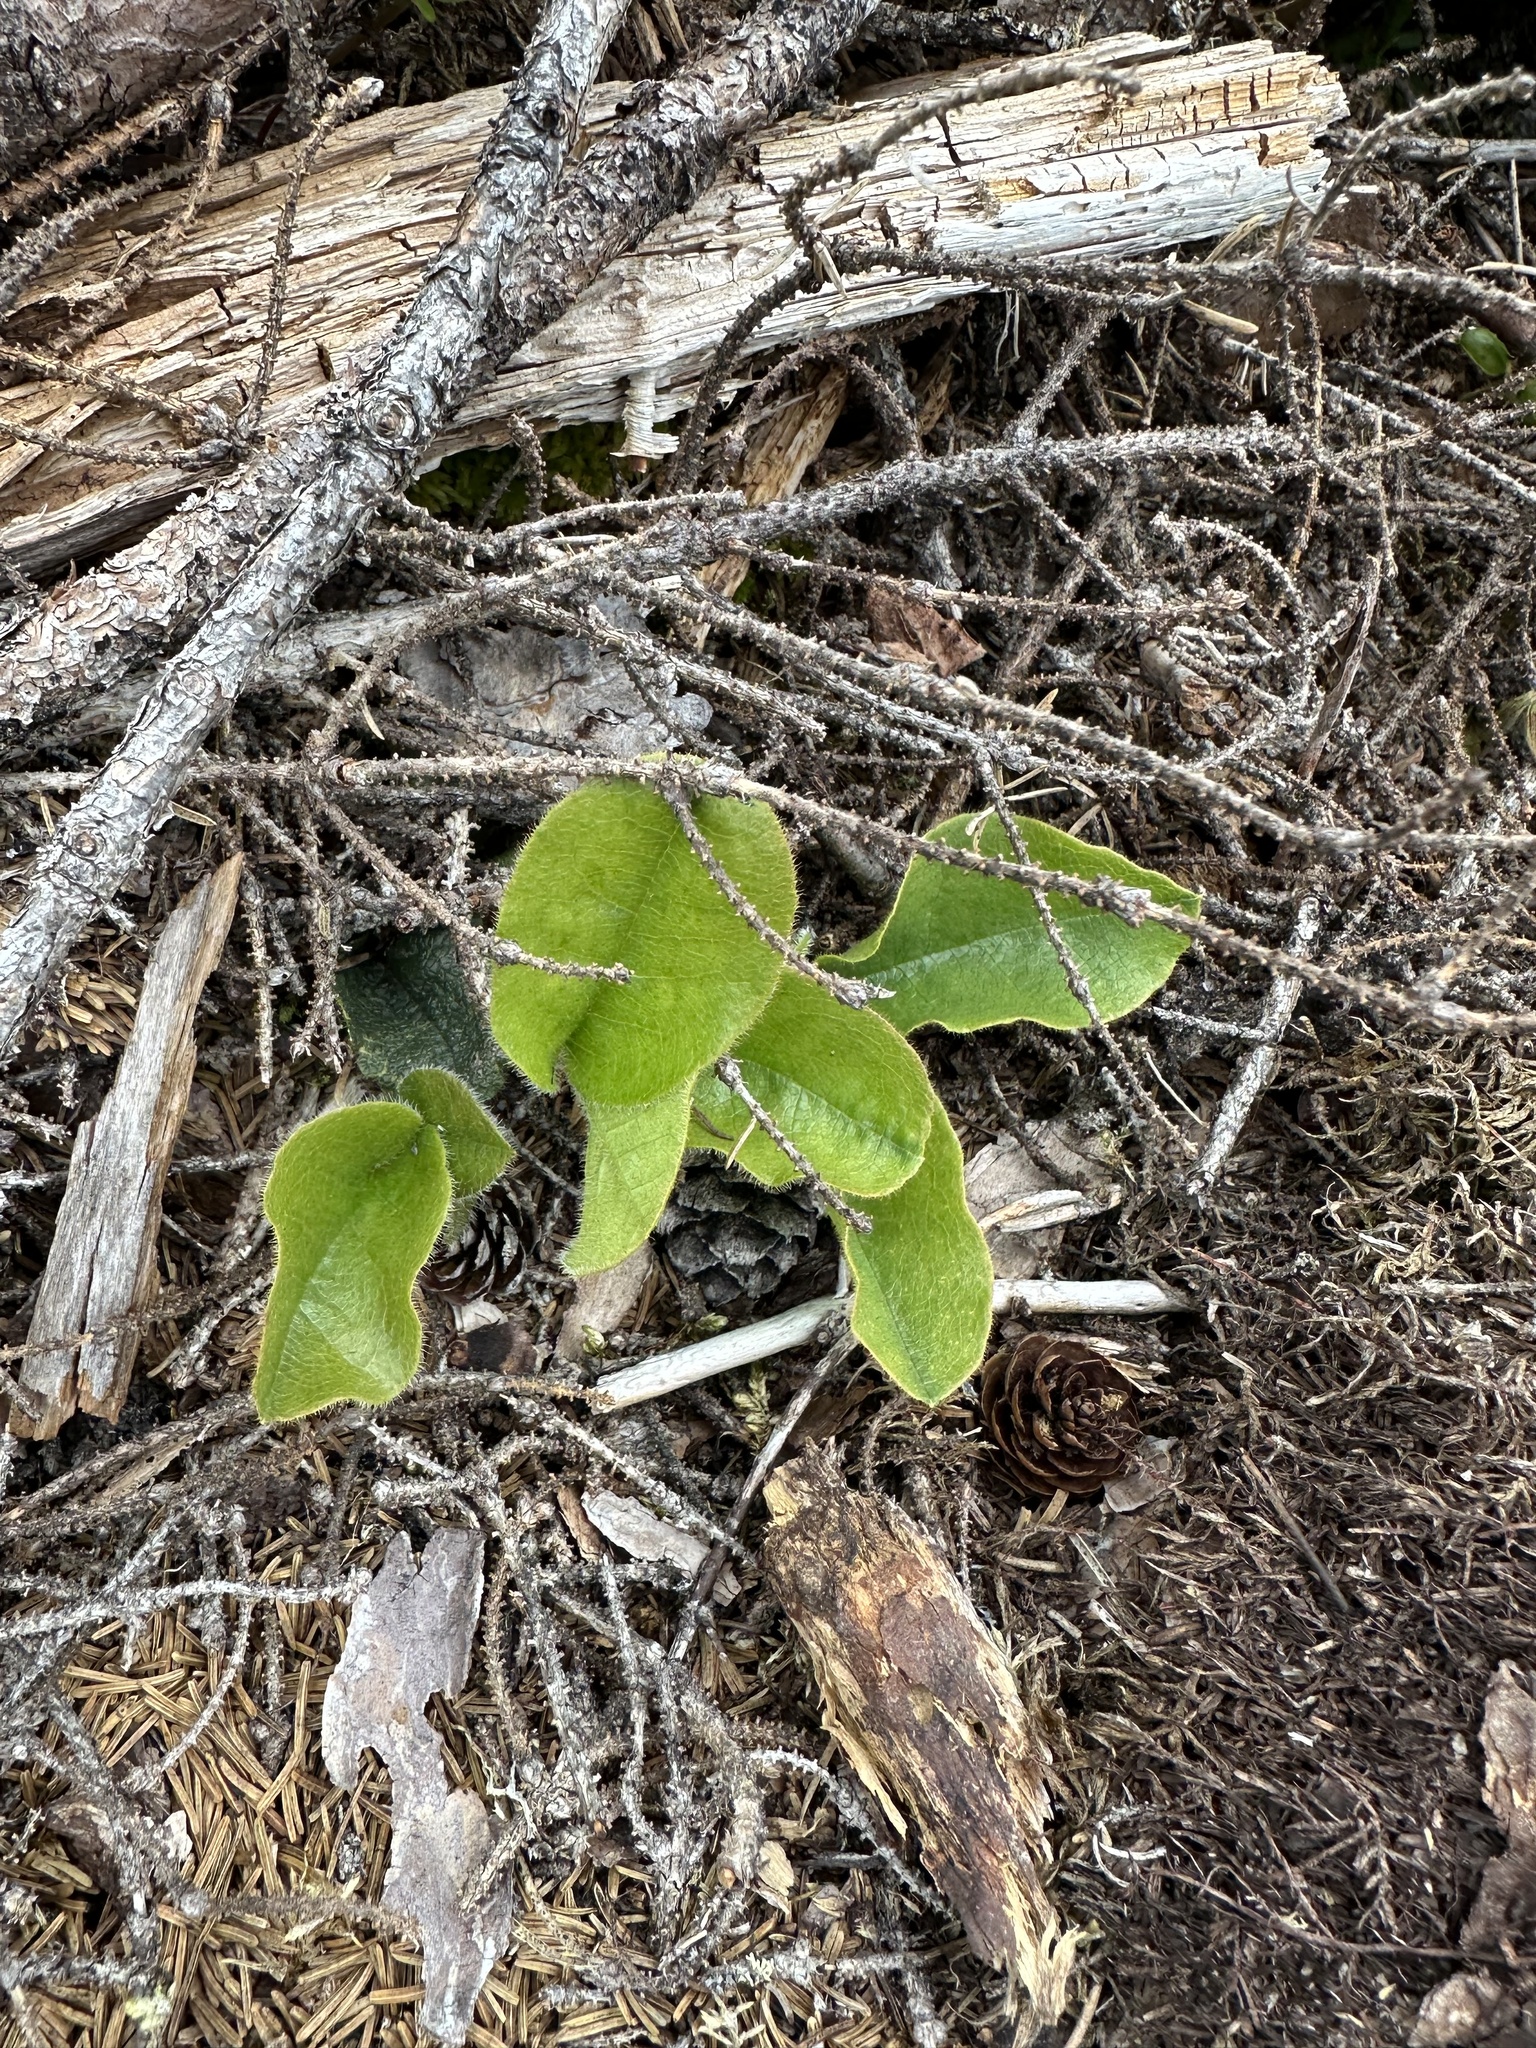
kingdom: Plantae
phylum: Tracheophyta
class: Magnoliopsida
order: Ericales
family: Ericaceae
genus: Epigaea
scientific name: Epigaea repens
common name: Gravelroot
